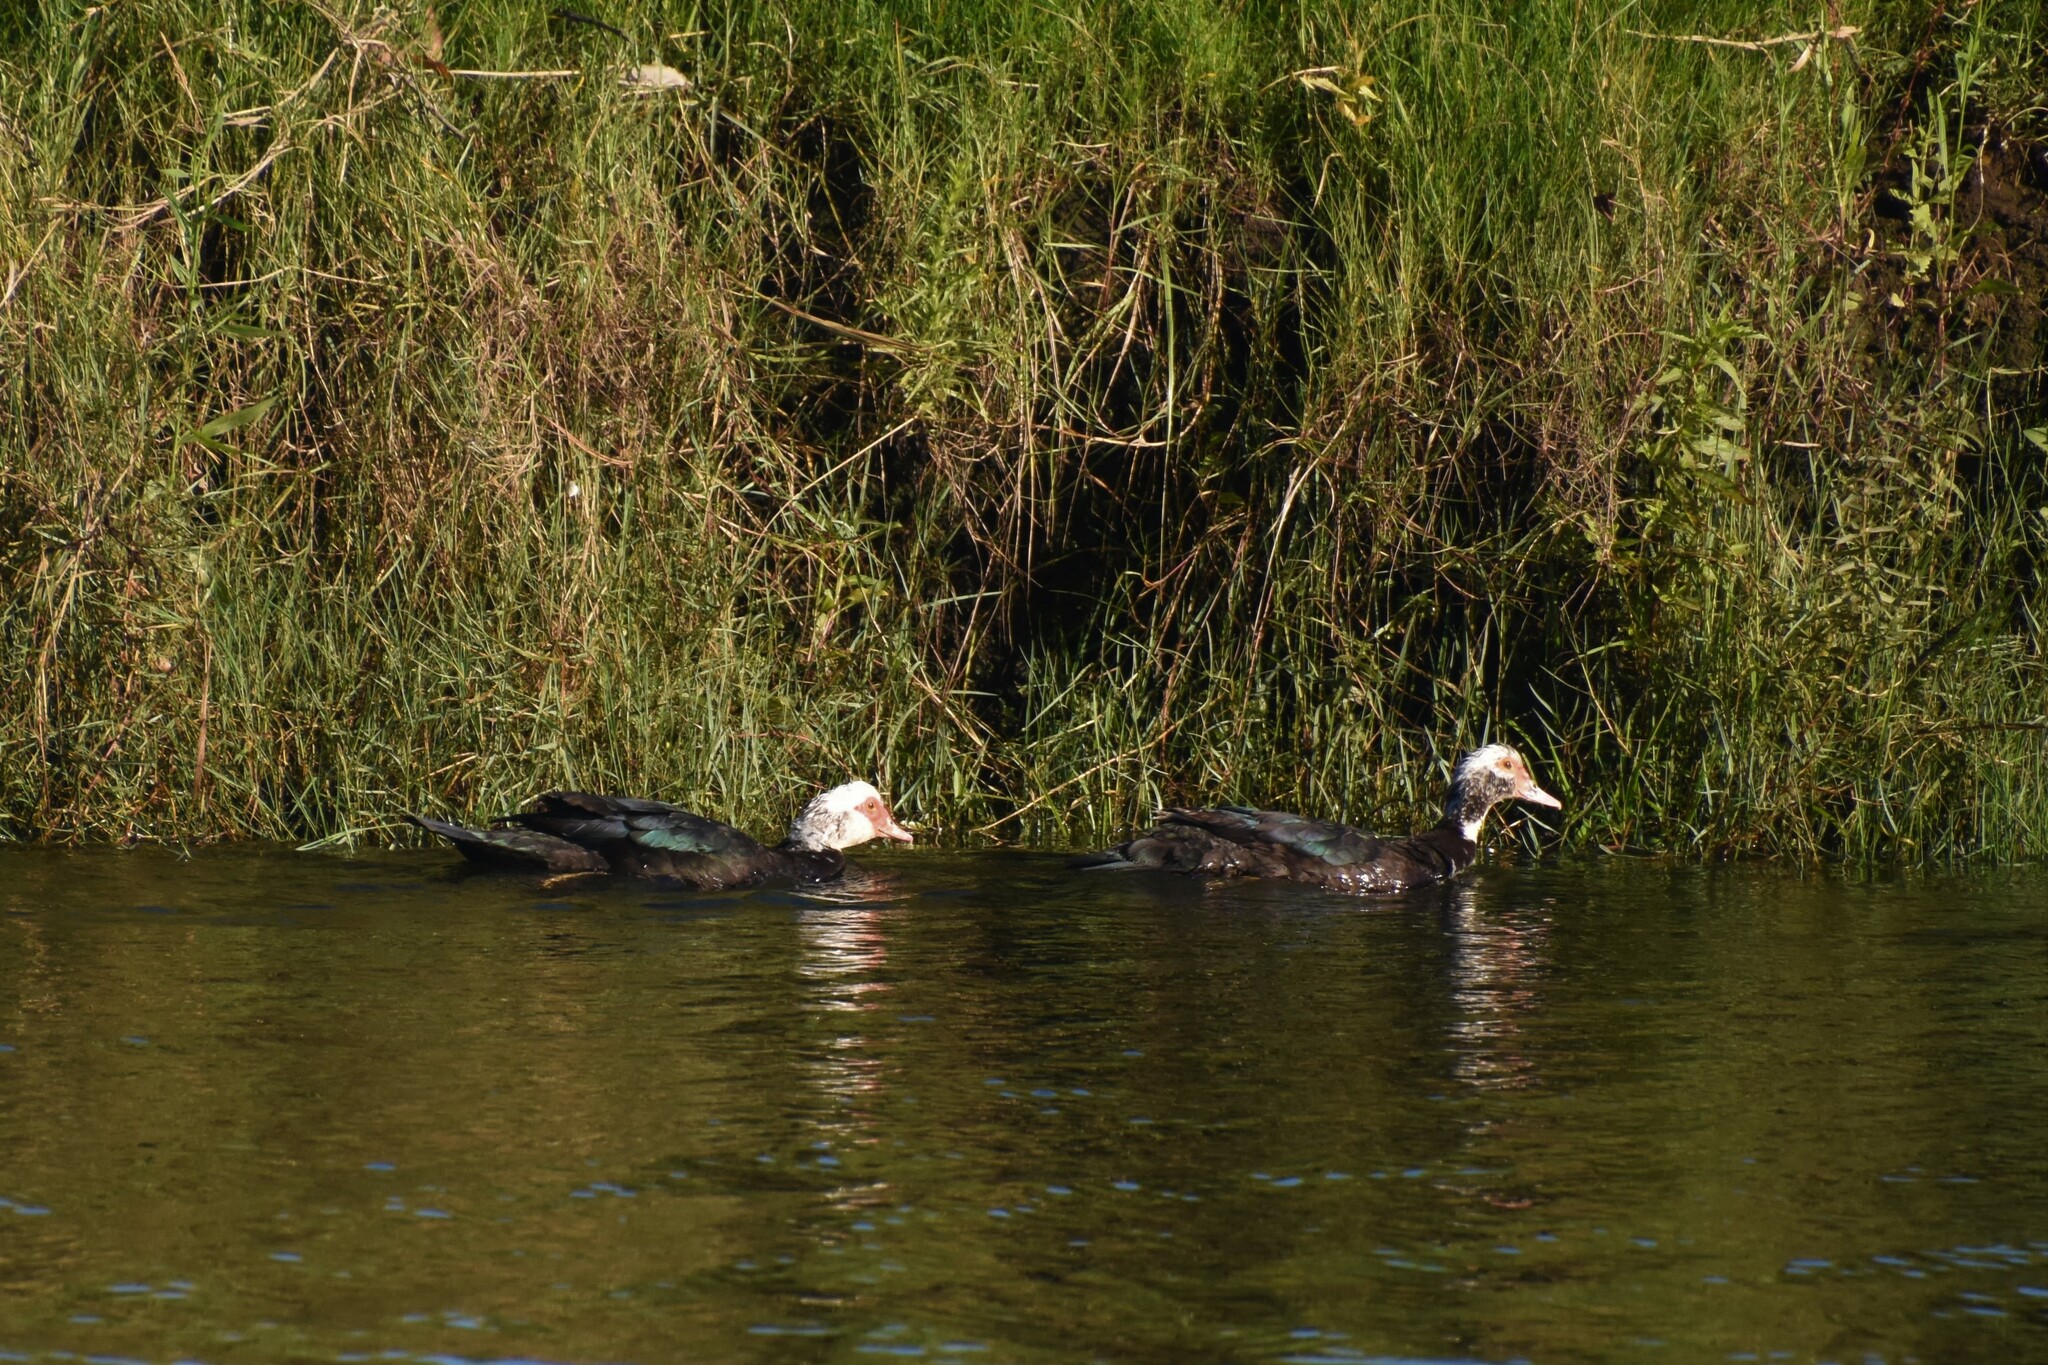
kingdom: Animalia
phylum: Chordata
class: Aves
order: Anseriformes
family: Anatidae
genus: Cairina
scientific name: Cairina moschata
